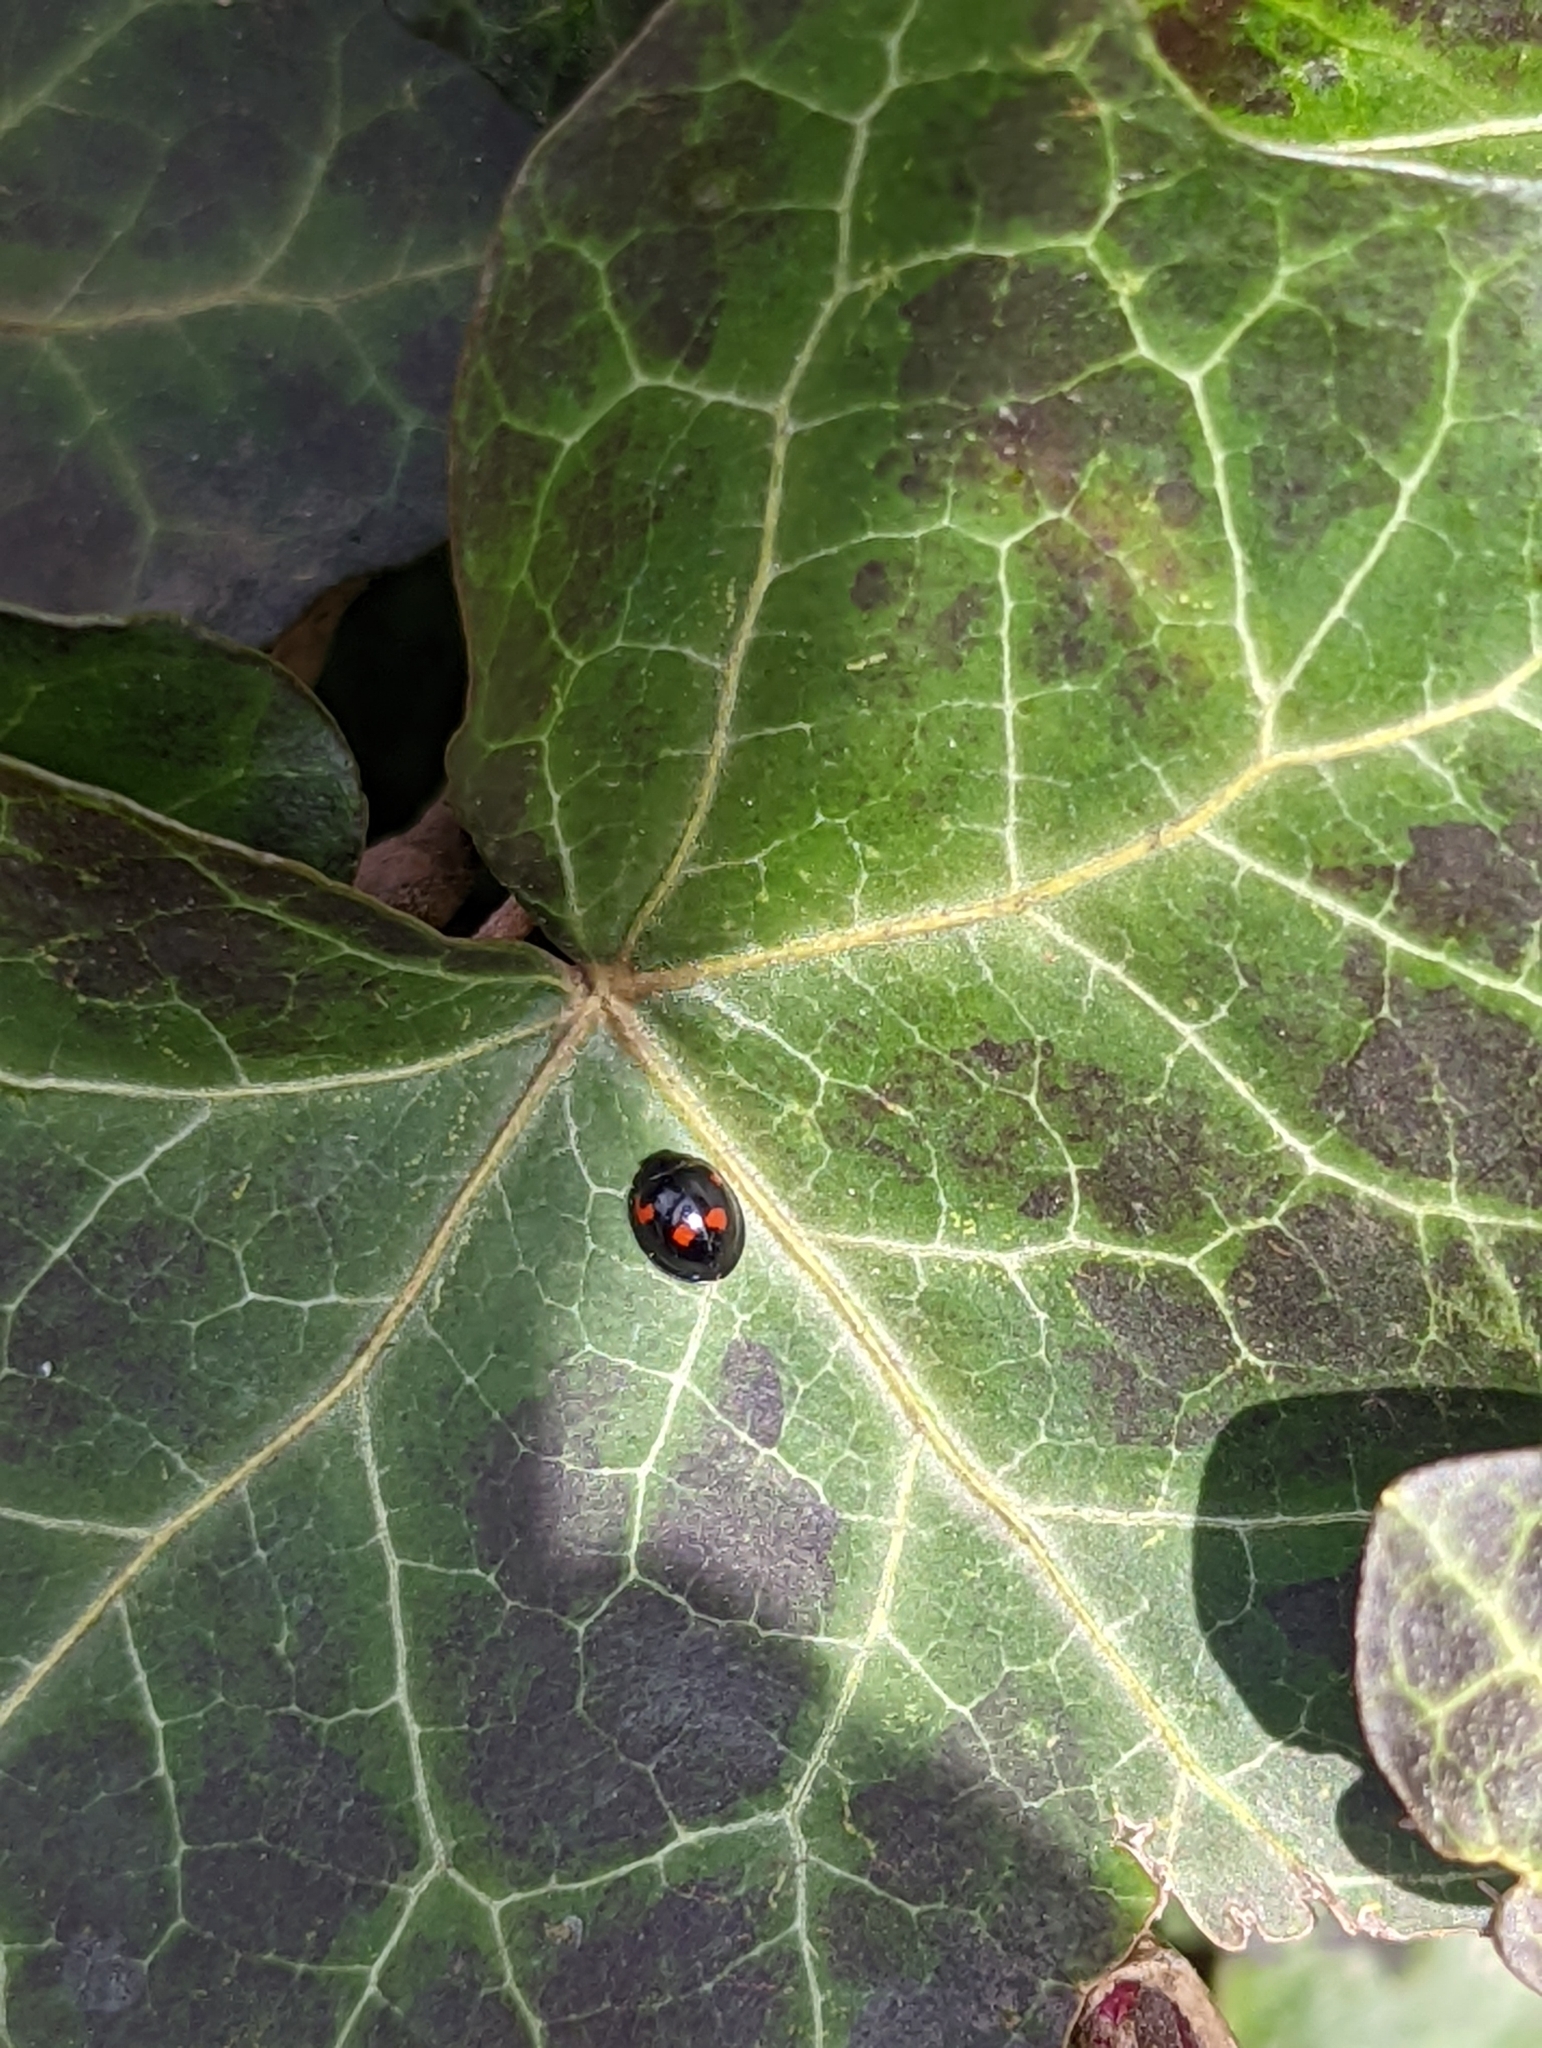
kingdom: Animalia
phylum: Arthropoda
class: Insecta
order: Coleoptera
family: Coccinellidae
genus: Brumus
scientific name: Brumus quadripustulatus
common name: Ladybird beetle
